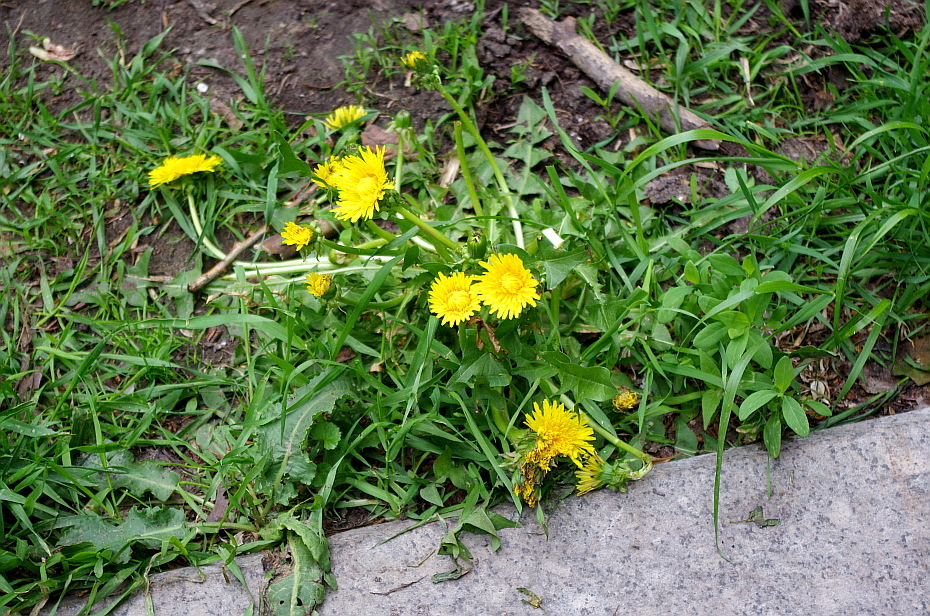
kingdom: Plantae
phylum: Tracheophyta
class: Magnoliopsida
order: Asterales
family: Asteraceae
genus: Taraxacum
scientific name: Taraxacum officinale
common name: Common dandelion
